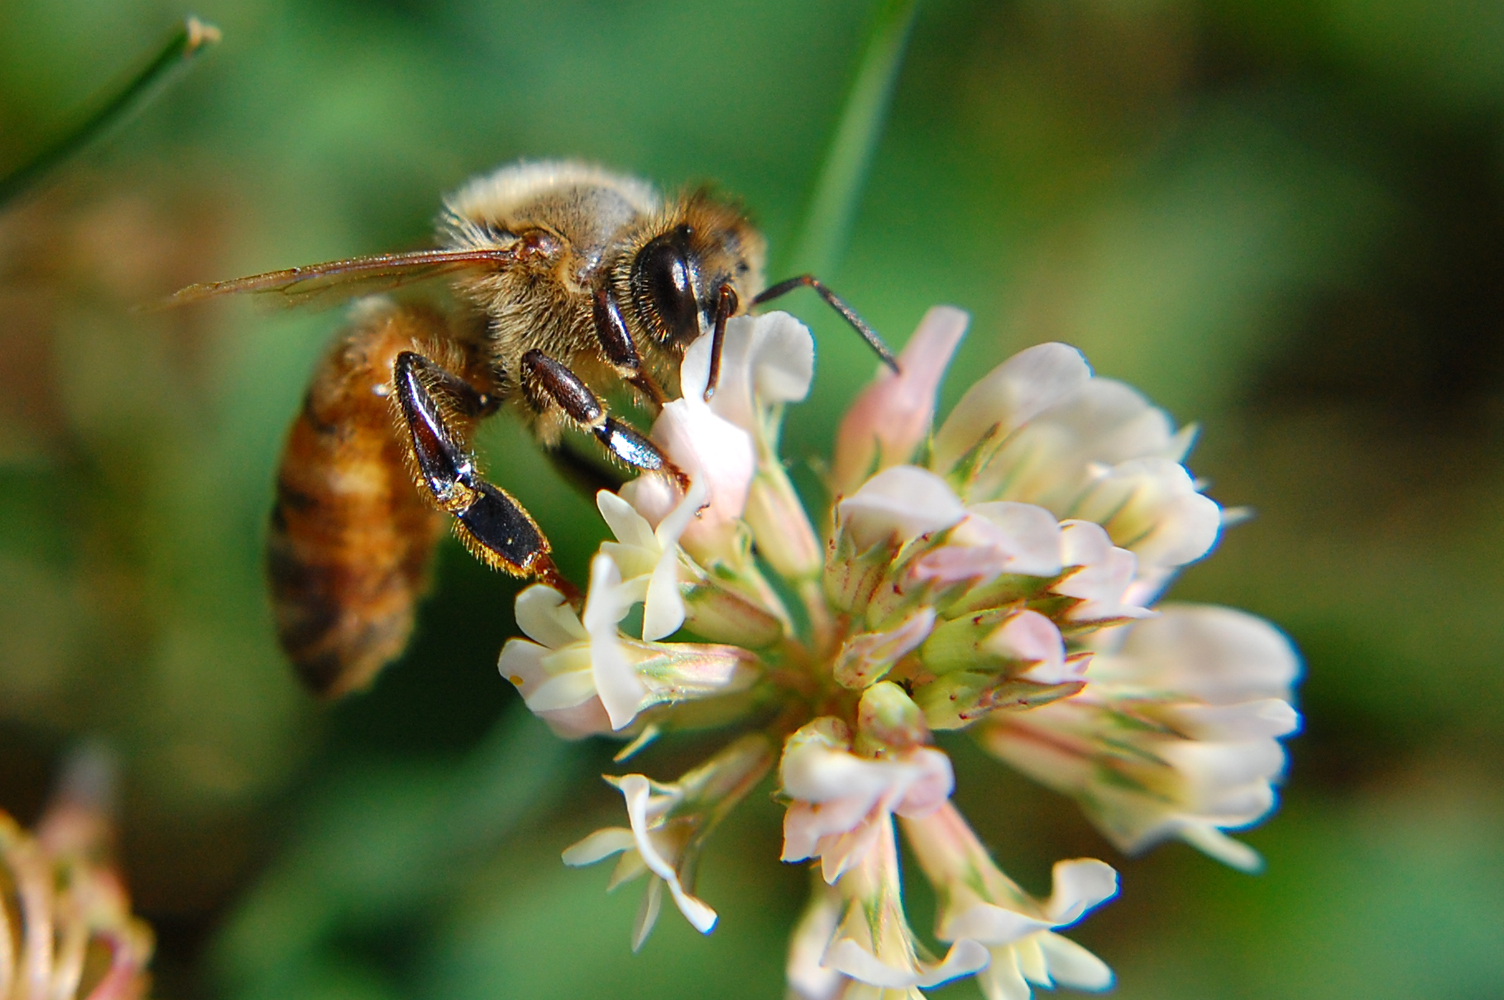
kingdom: Animalia
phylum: Arthropoda
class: Insecta
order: Hymenoptera
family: Apidae
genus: Apis
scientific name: Apis mellifera
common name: Honey bee
